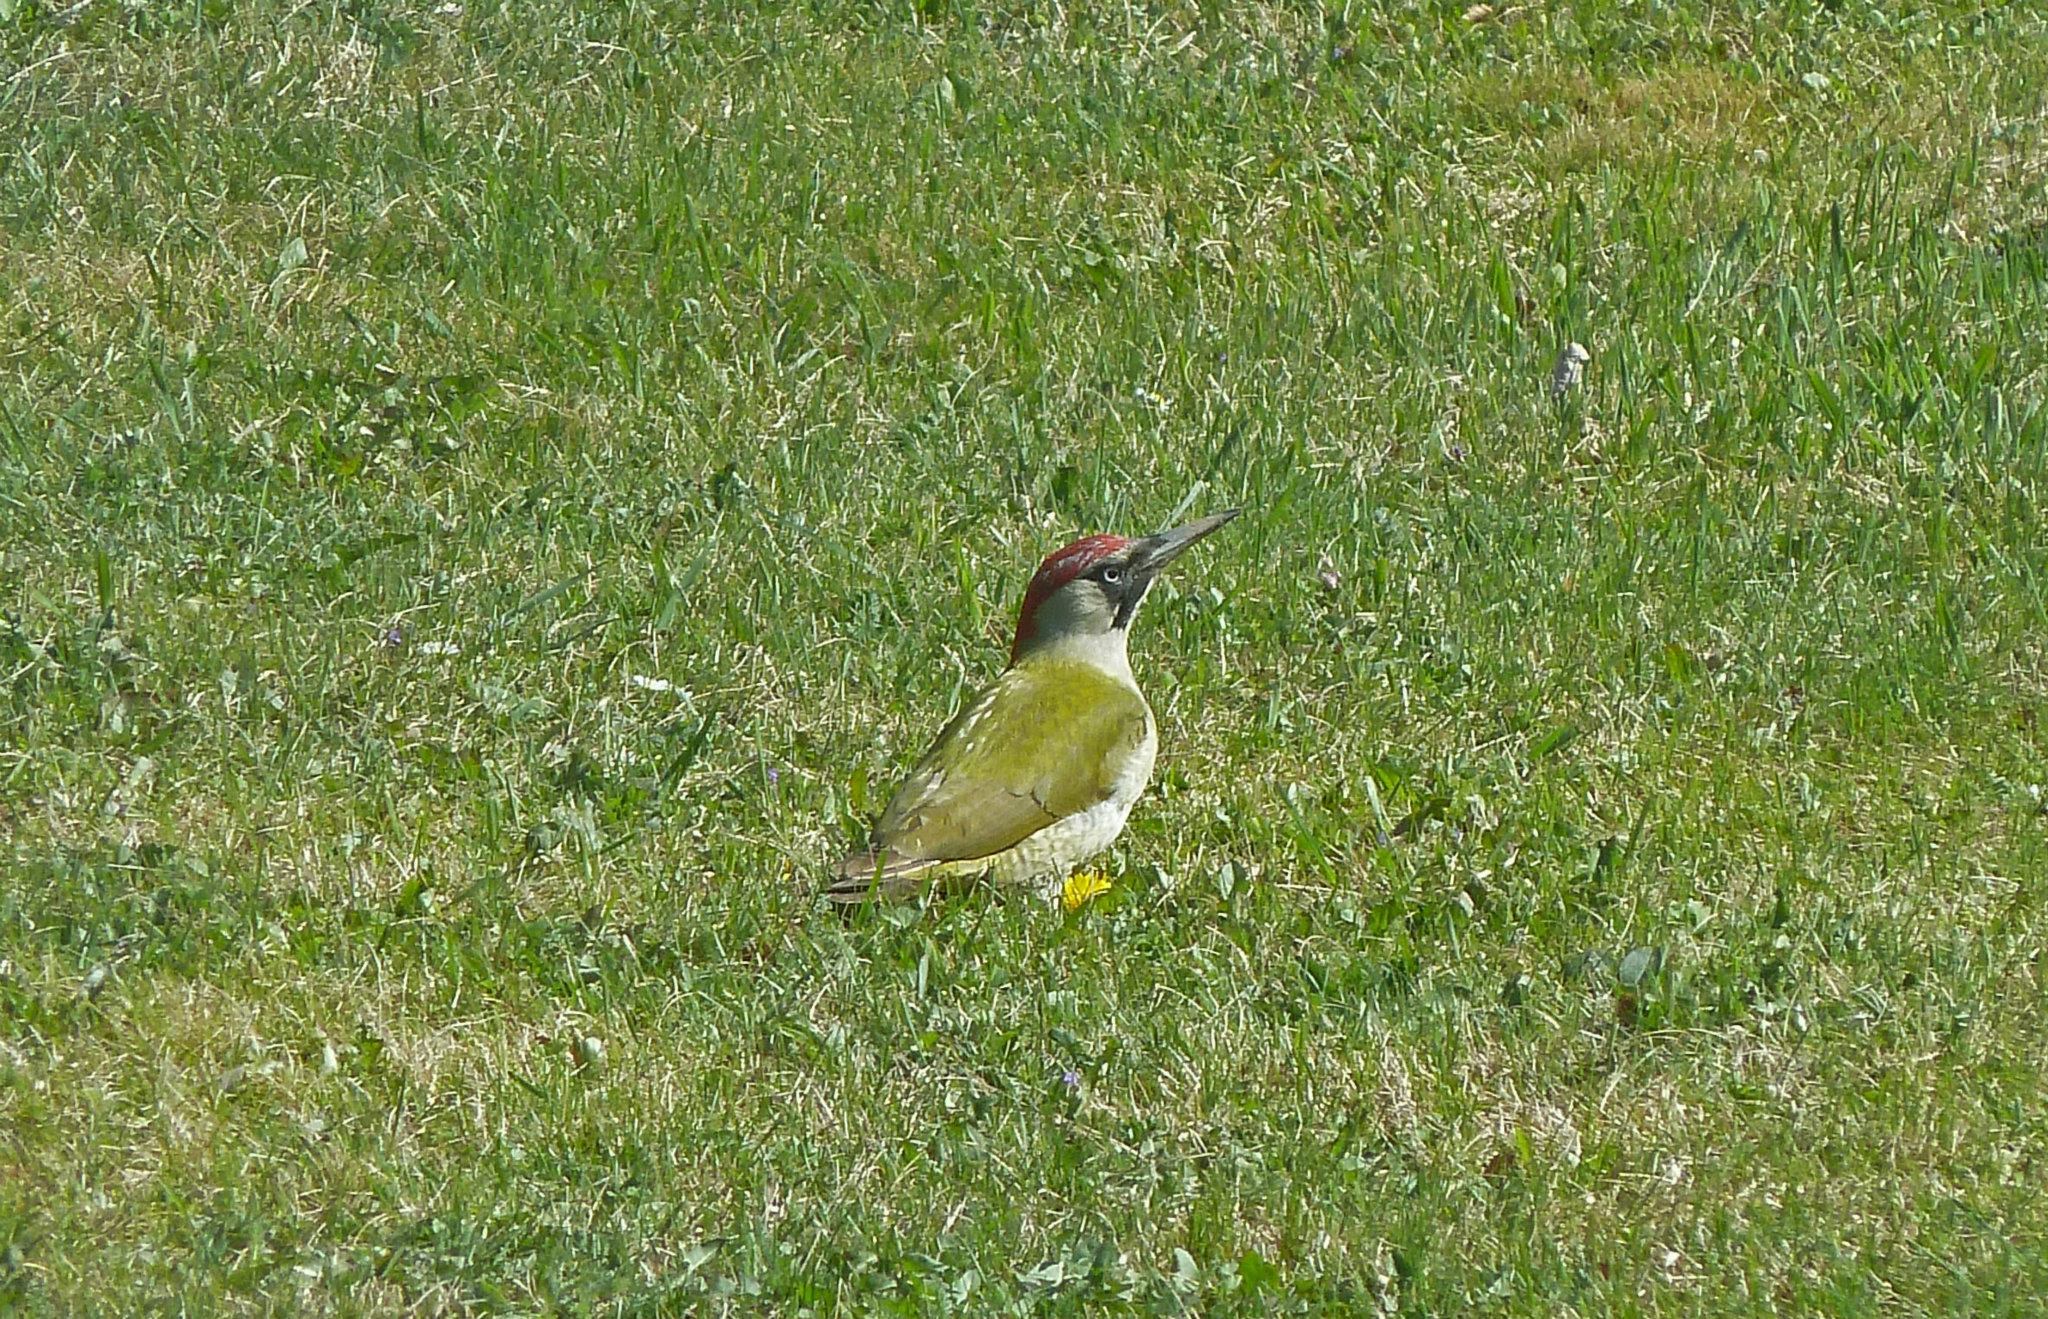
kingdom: Animalia
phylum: Chordata
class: Aves
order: Piciformes
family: Picidae
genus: Picus
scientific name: Picus viridis
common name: European green woodpecker
